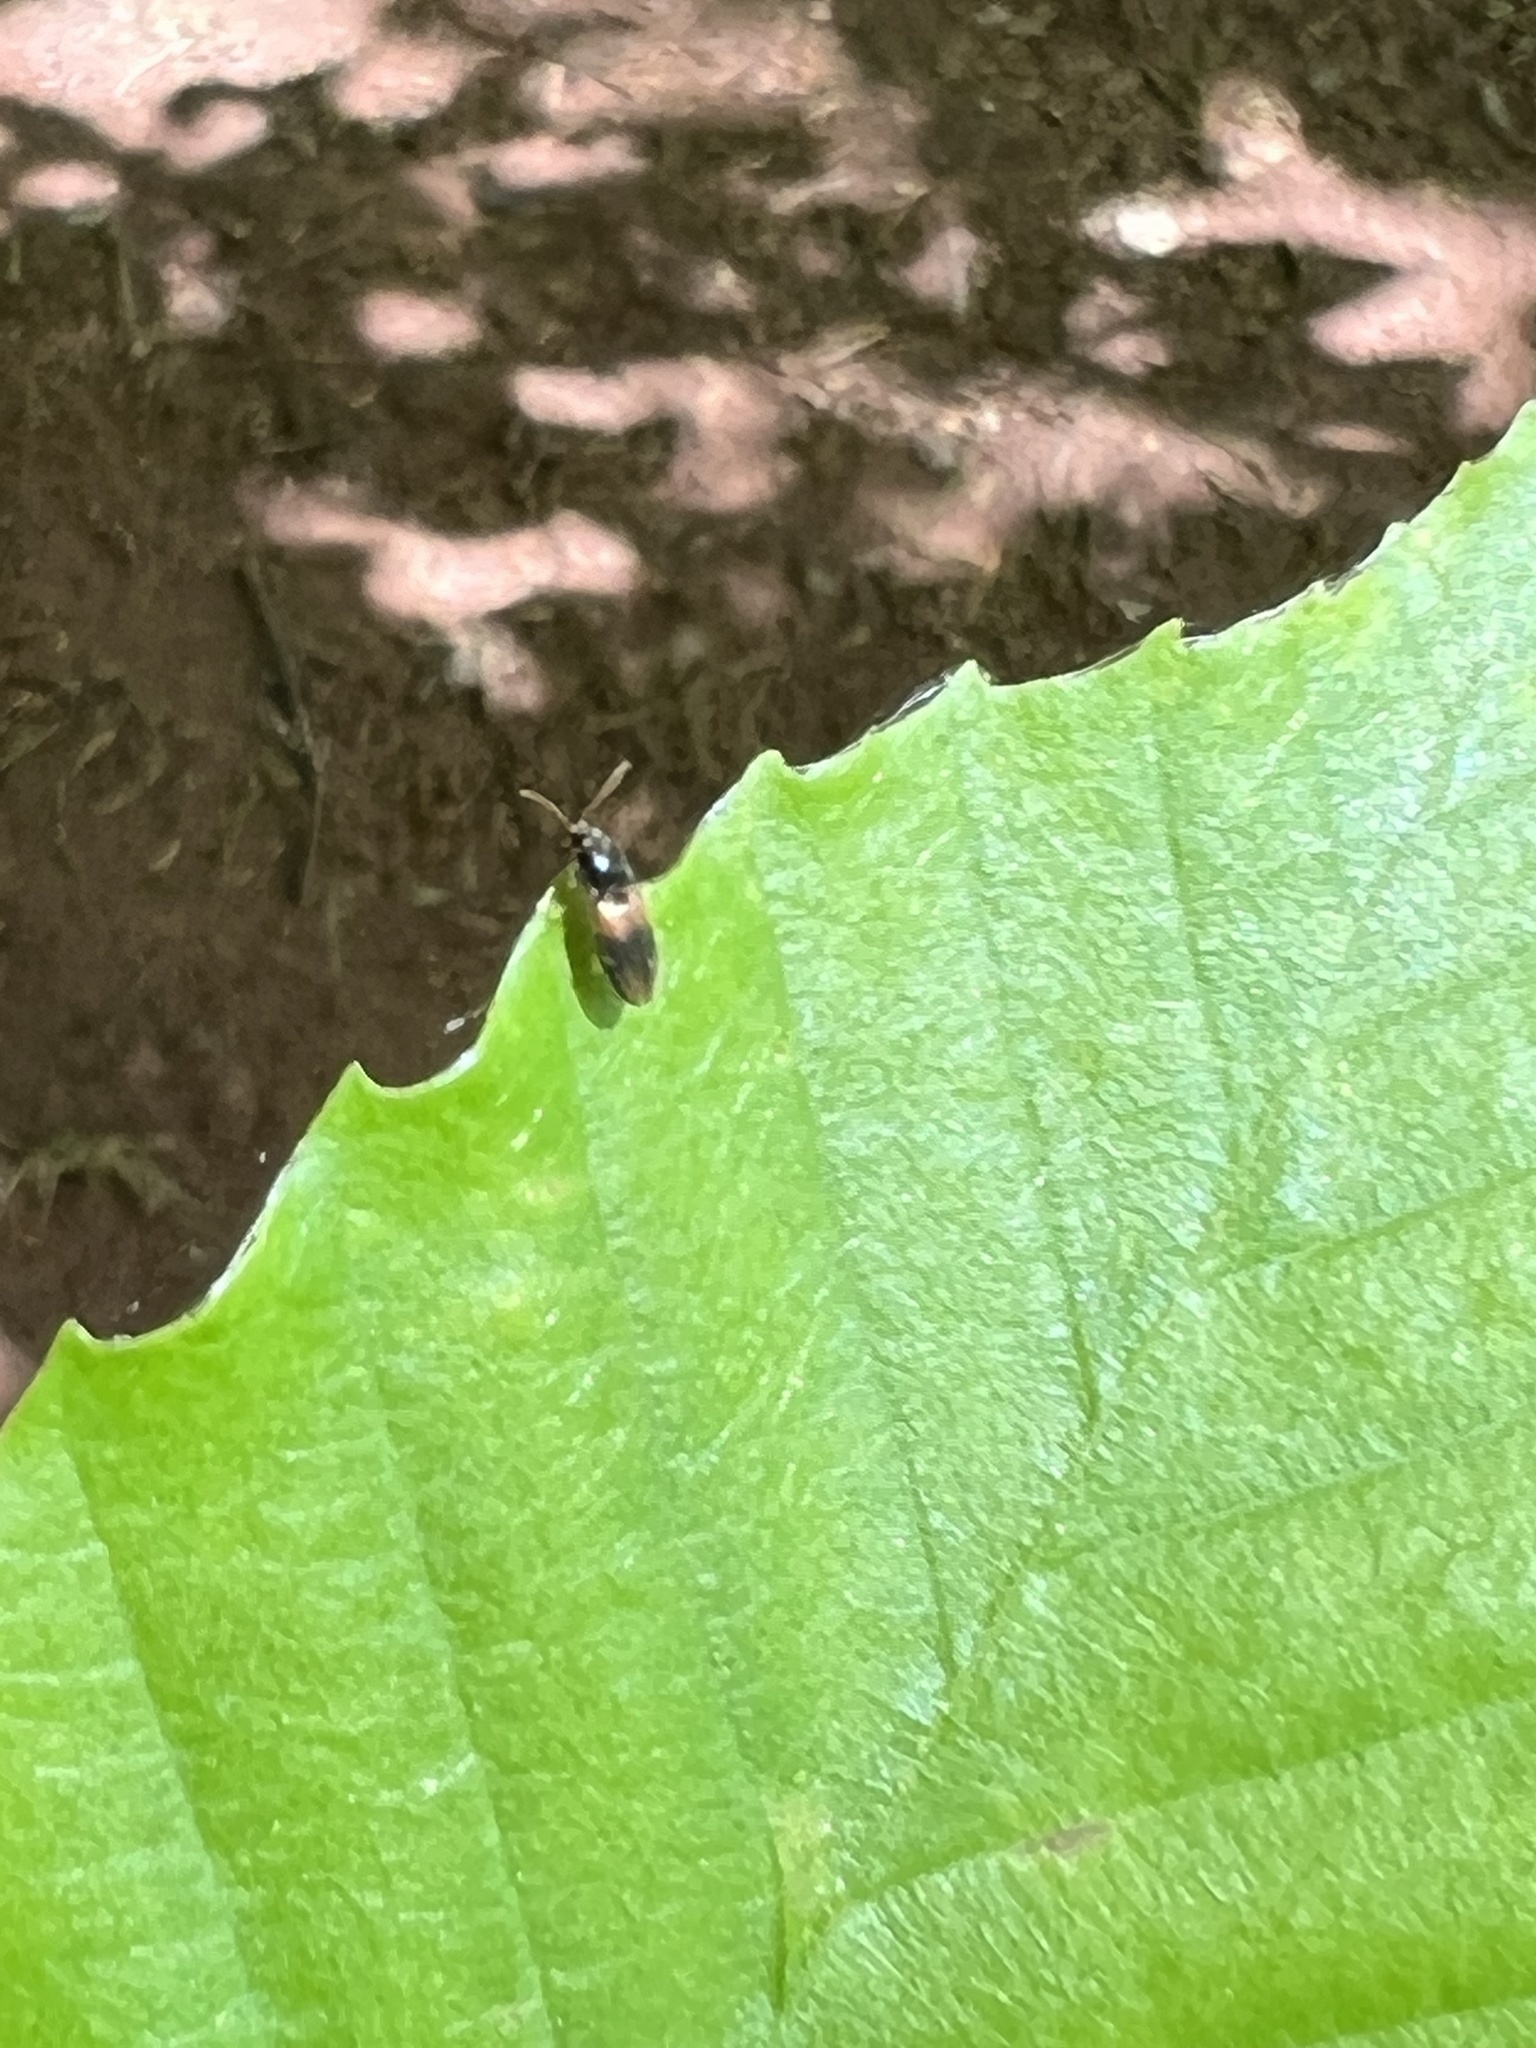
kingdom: Animalia
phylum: Arthropoda
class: Insecta
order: Coleoptera
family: Elateridae
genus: Horistonotus
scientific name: Horistonotus curiatus
